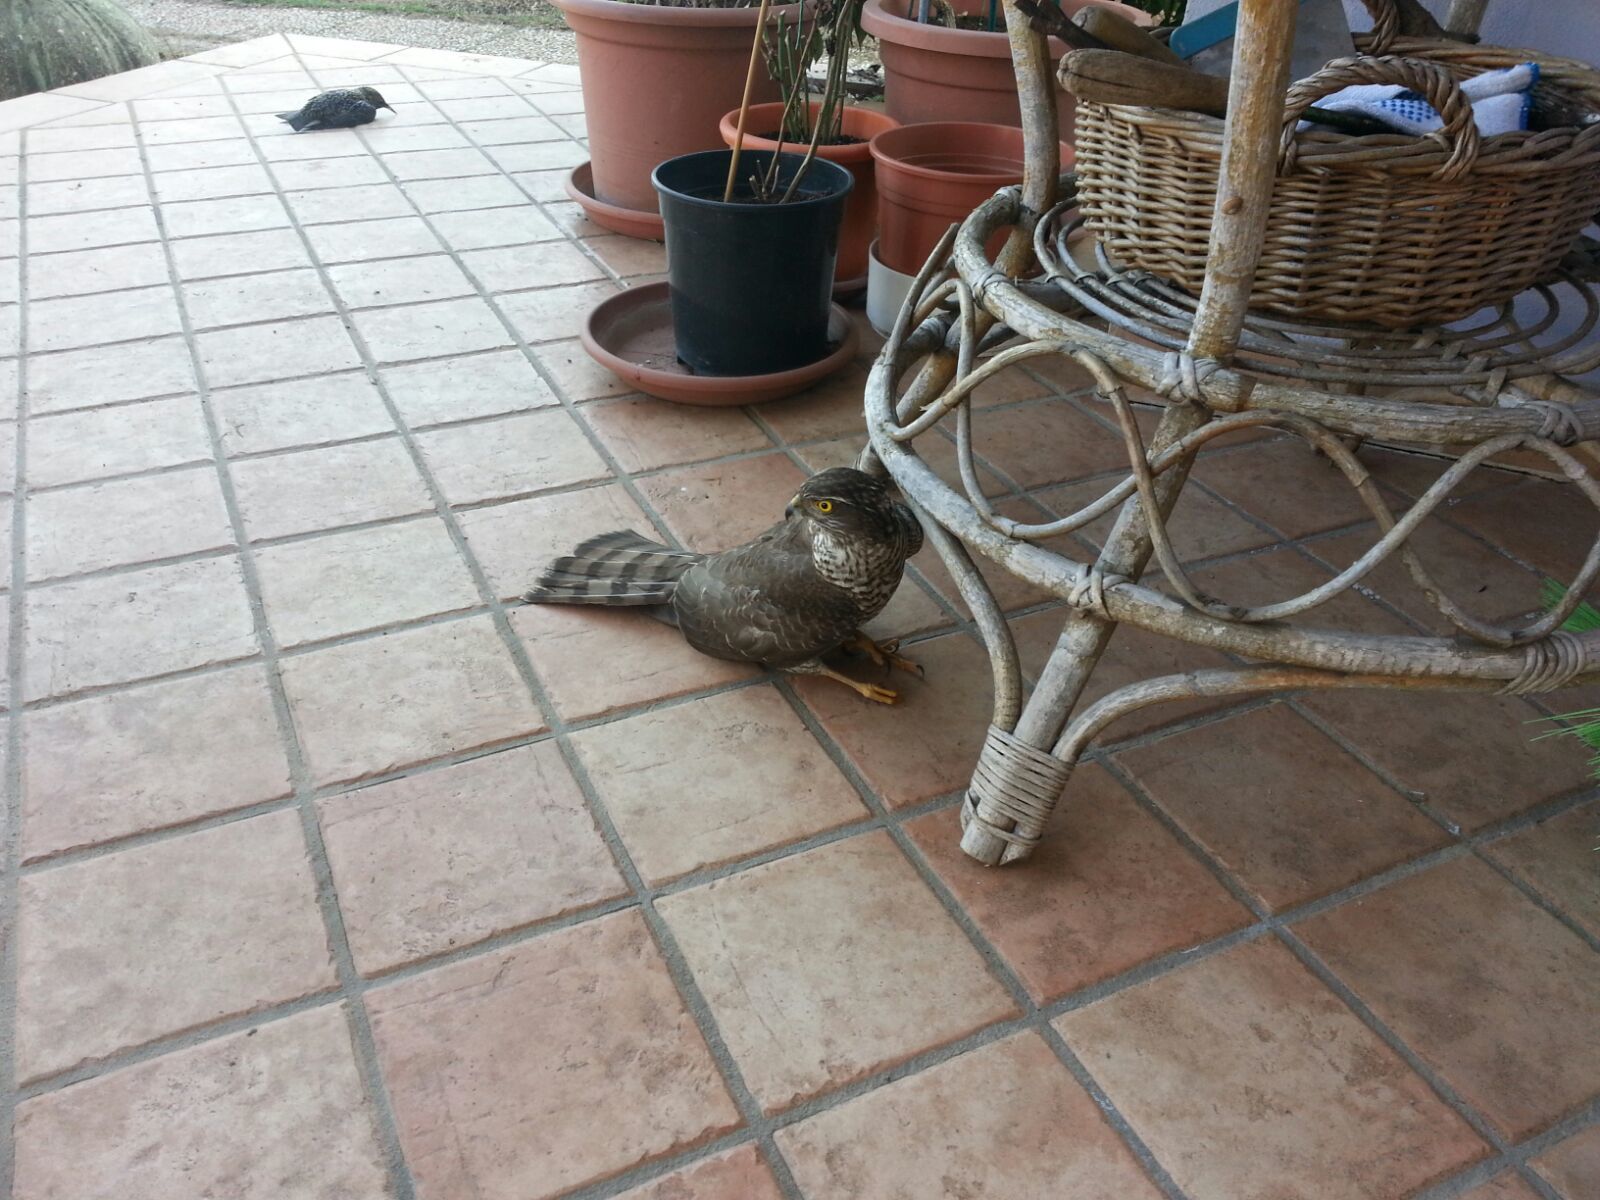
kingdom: Animalia
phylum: Chordata
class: Aves
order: Accipitriformes
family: Accipitridae
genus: Accipiter
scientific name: Accipiter nisus
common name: Eurasian sparrowhawk
